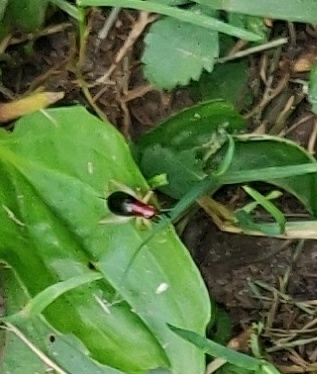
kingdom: Animalia
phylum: Arthropoda
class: Insecta
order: Orthoptera
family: Trigonidiidae
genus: Phyllopalpus
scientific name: Phyllopalpus pulchellus
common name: Handsome trig
